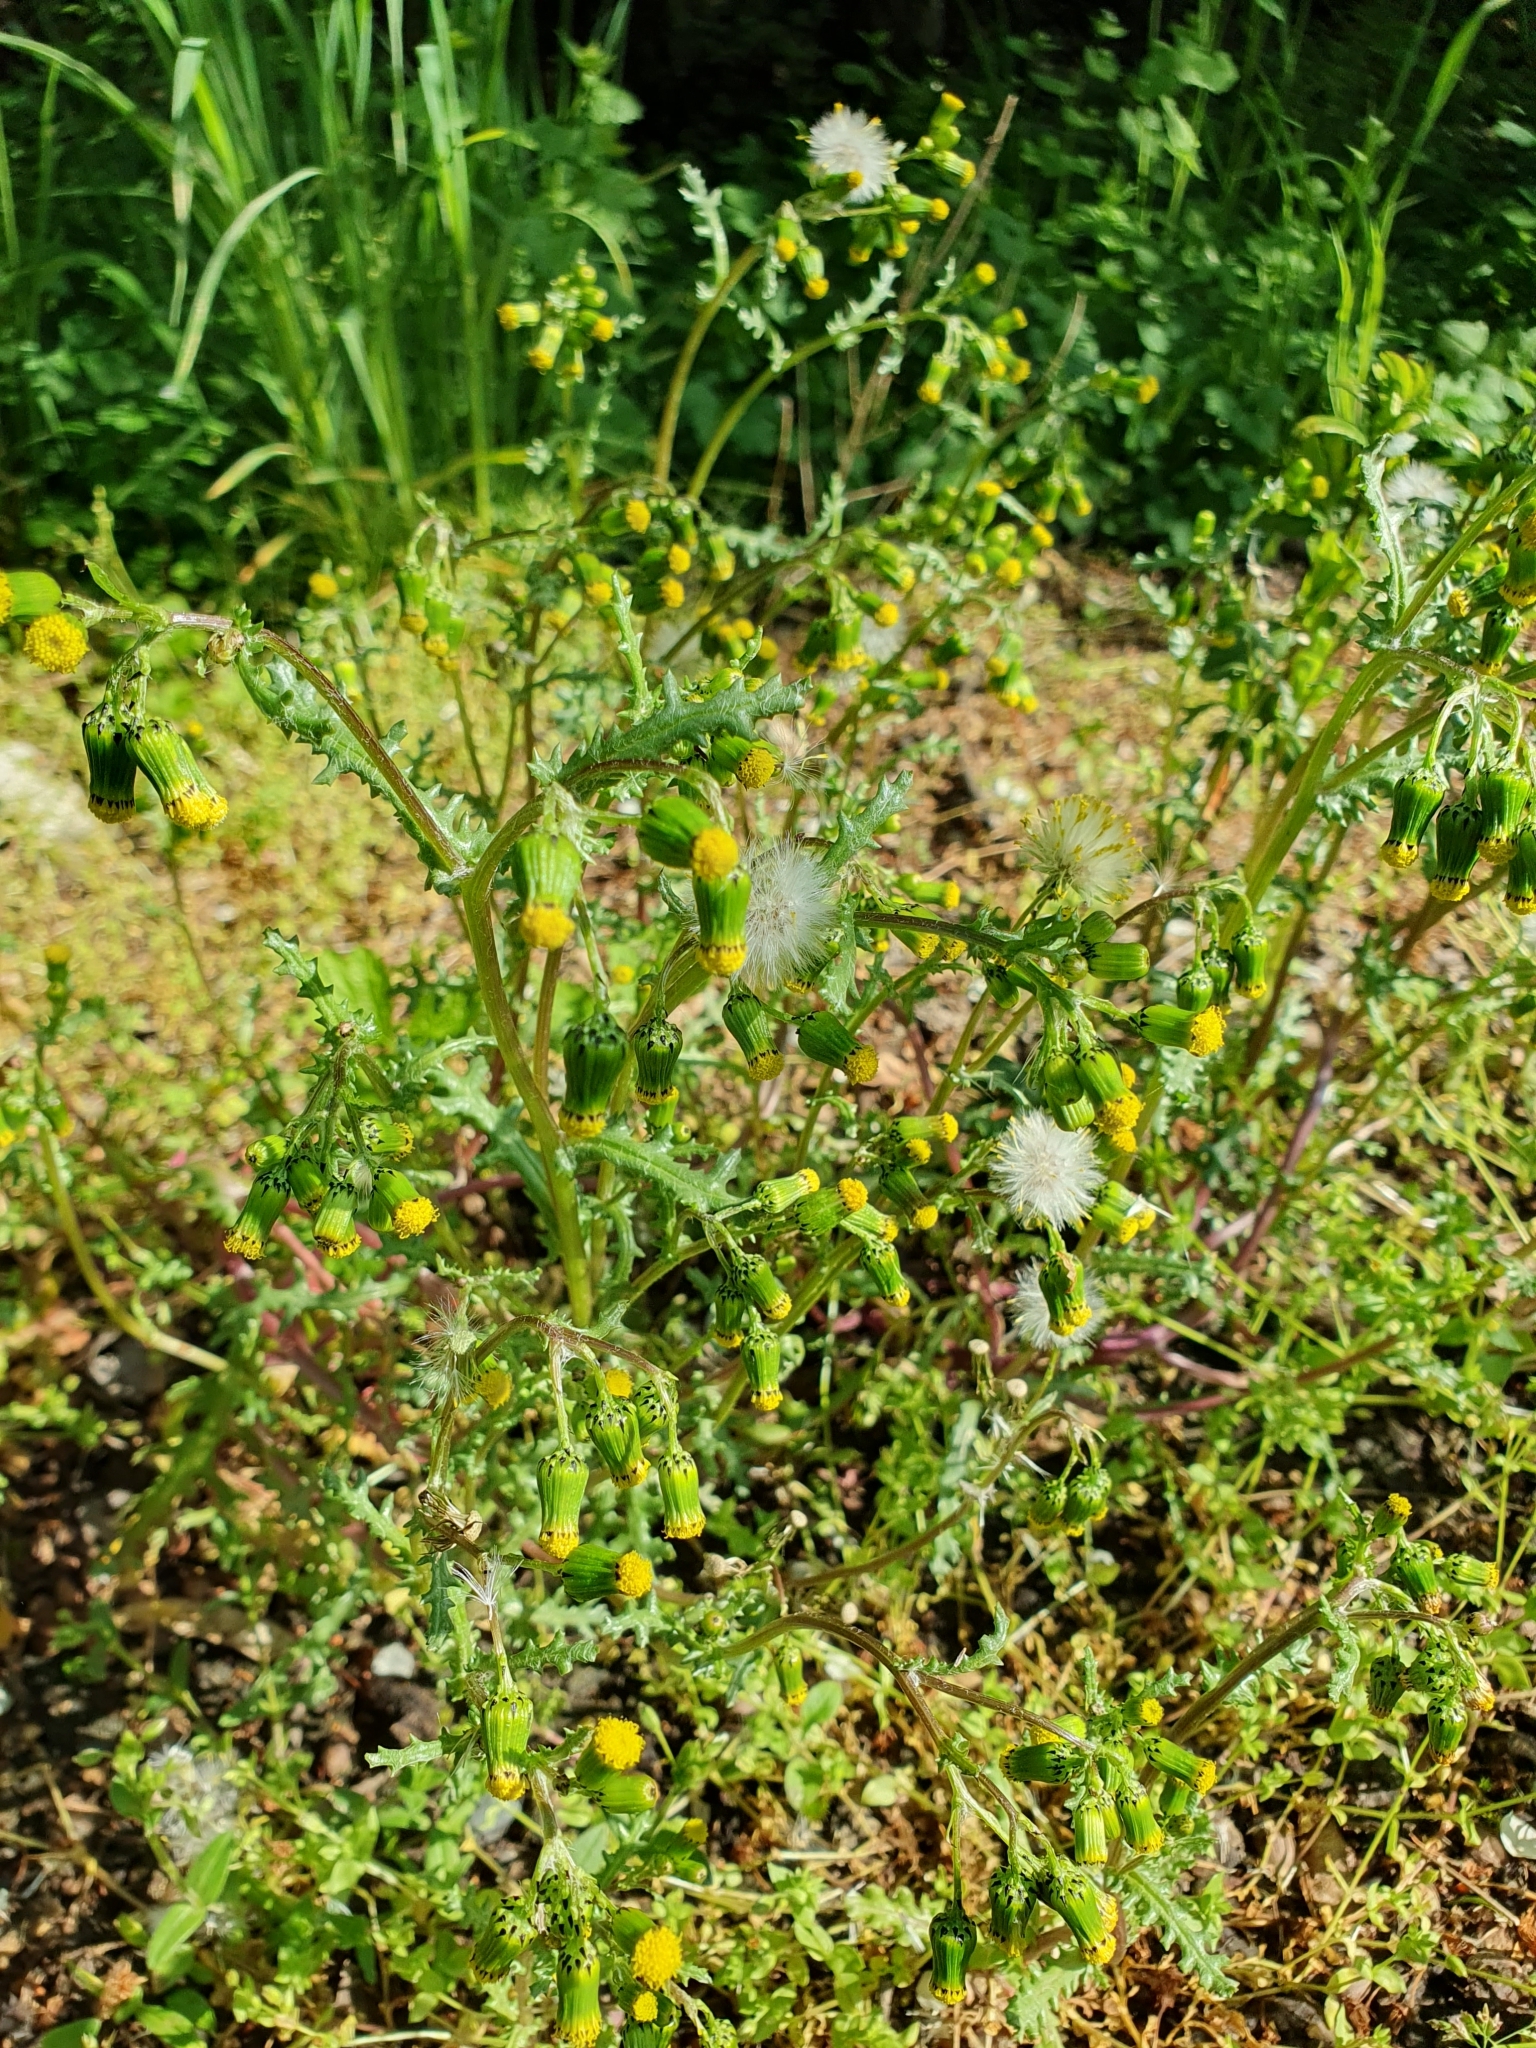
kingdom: Plantae
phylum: Tracheophyta
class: Magnoliopsida
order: Asterales
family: Asteraceae
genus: Senecio
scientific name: Senecio vulgaris
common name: Old-man-in-the-spring
